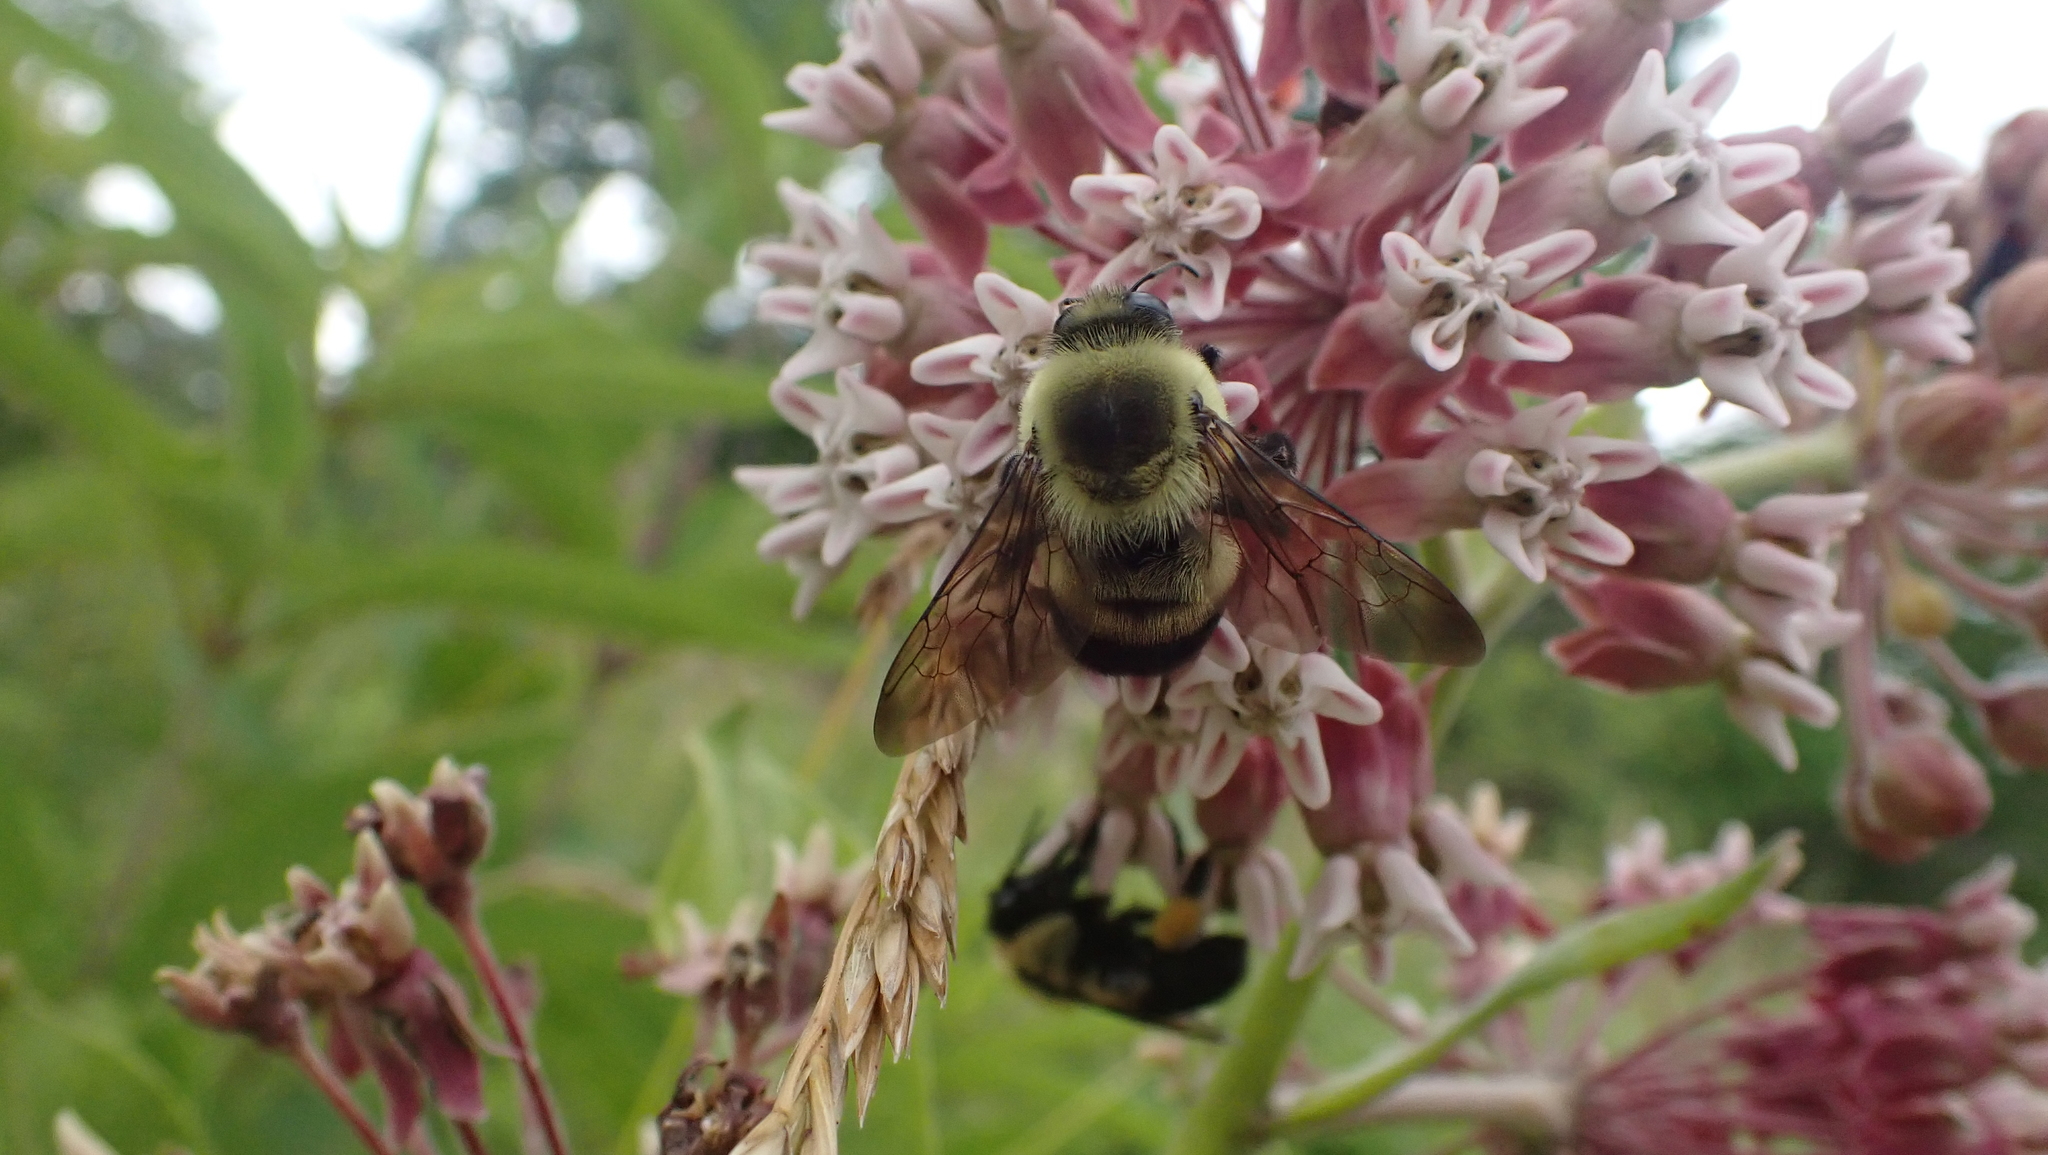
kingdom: Animalia
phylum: Arthropoda
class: Insecta
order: Hymenoptera
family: Apidae
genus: Bombus
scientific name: Bombus griseocollis
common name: Brown-belted bumble bee
